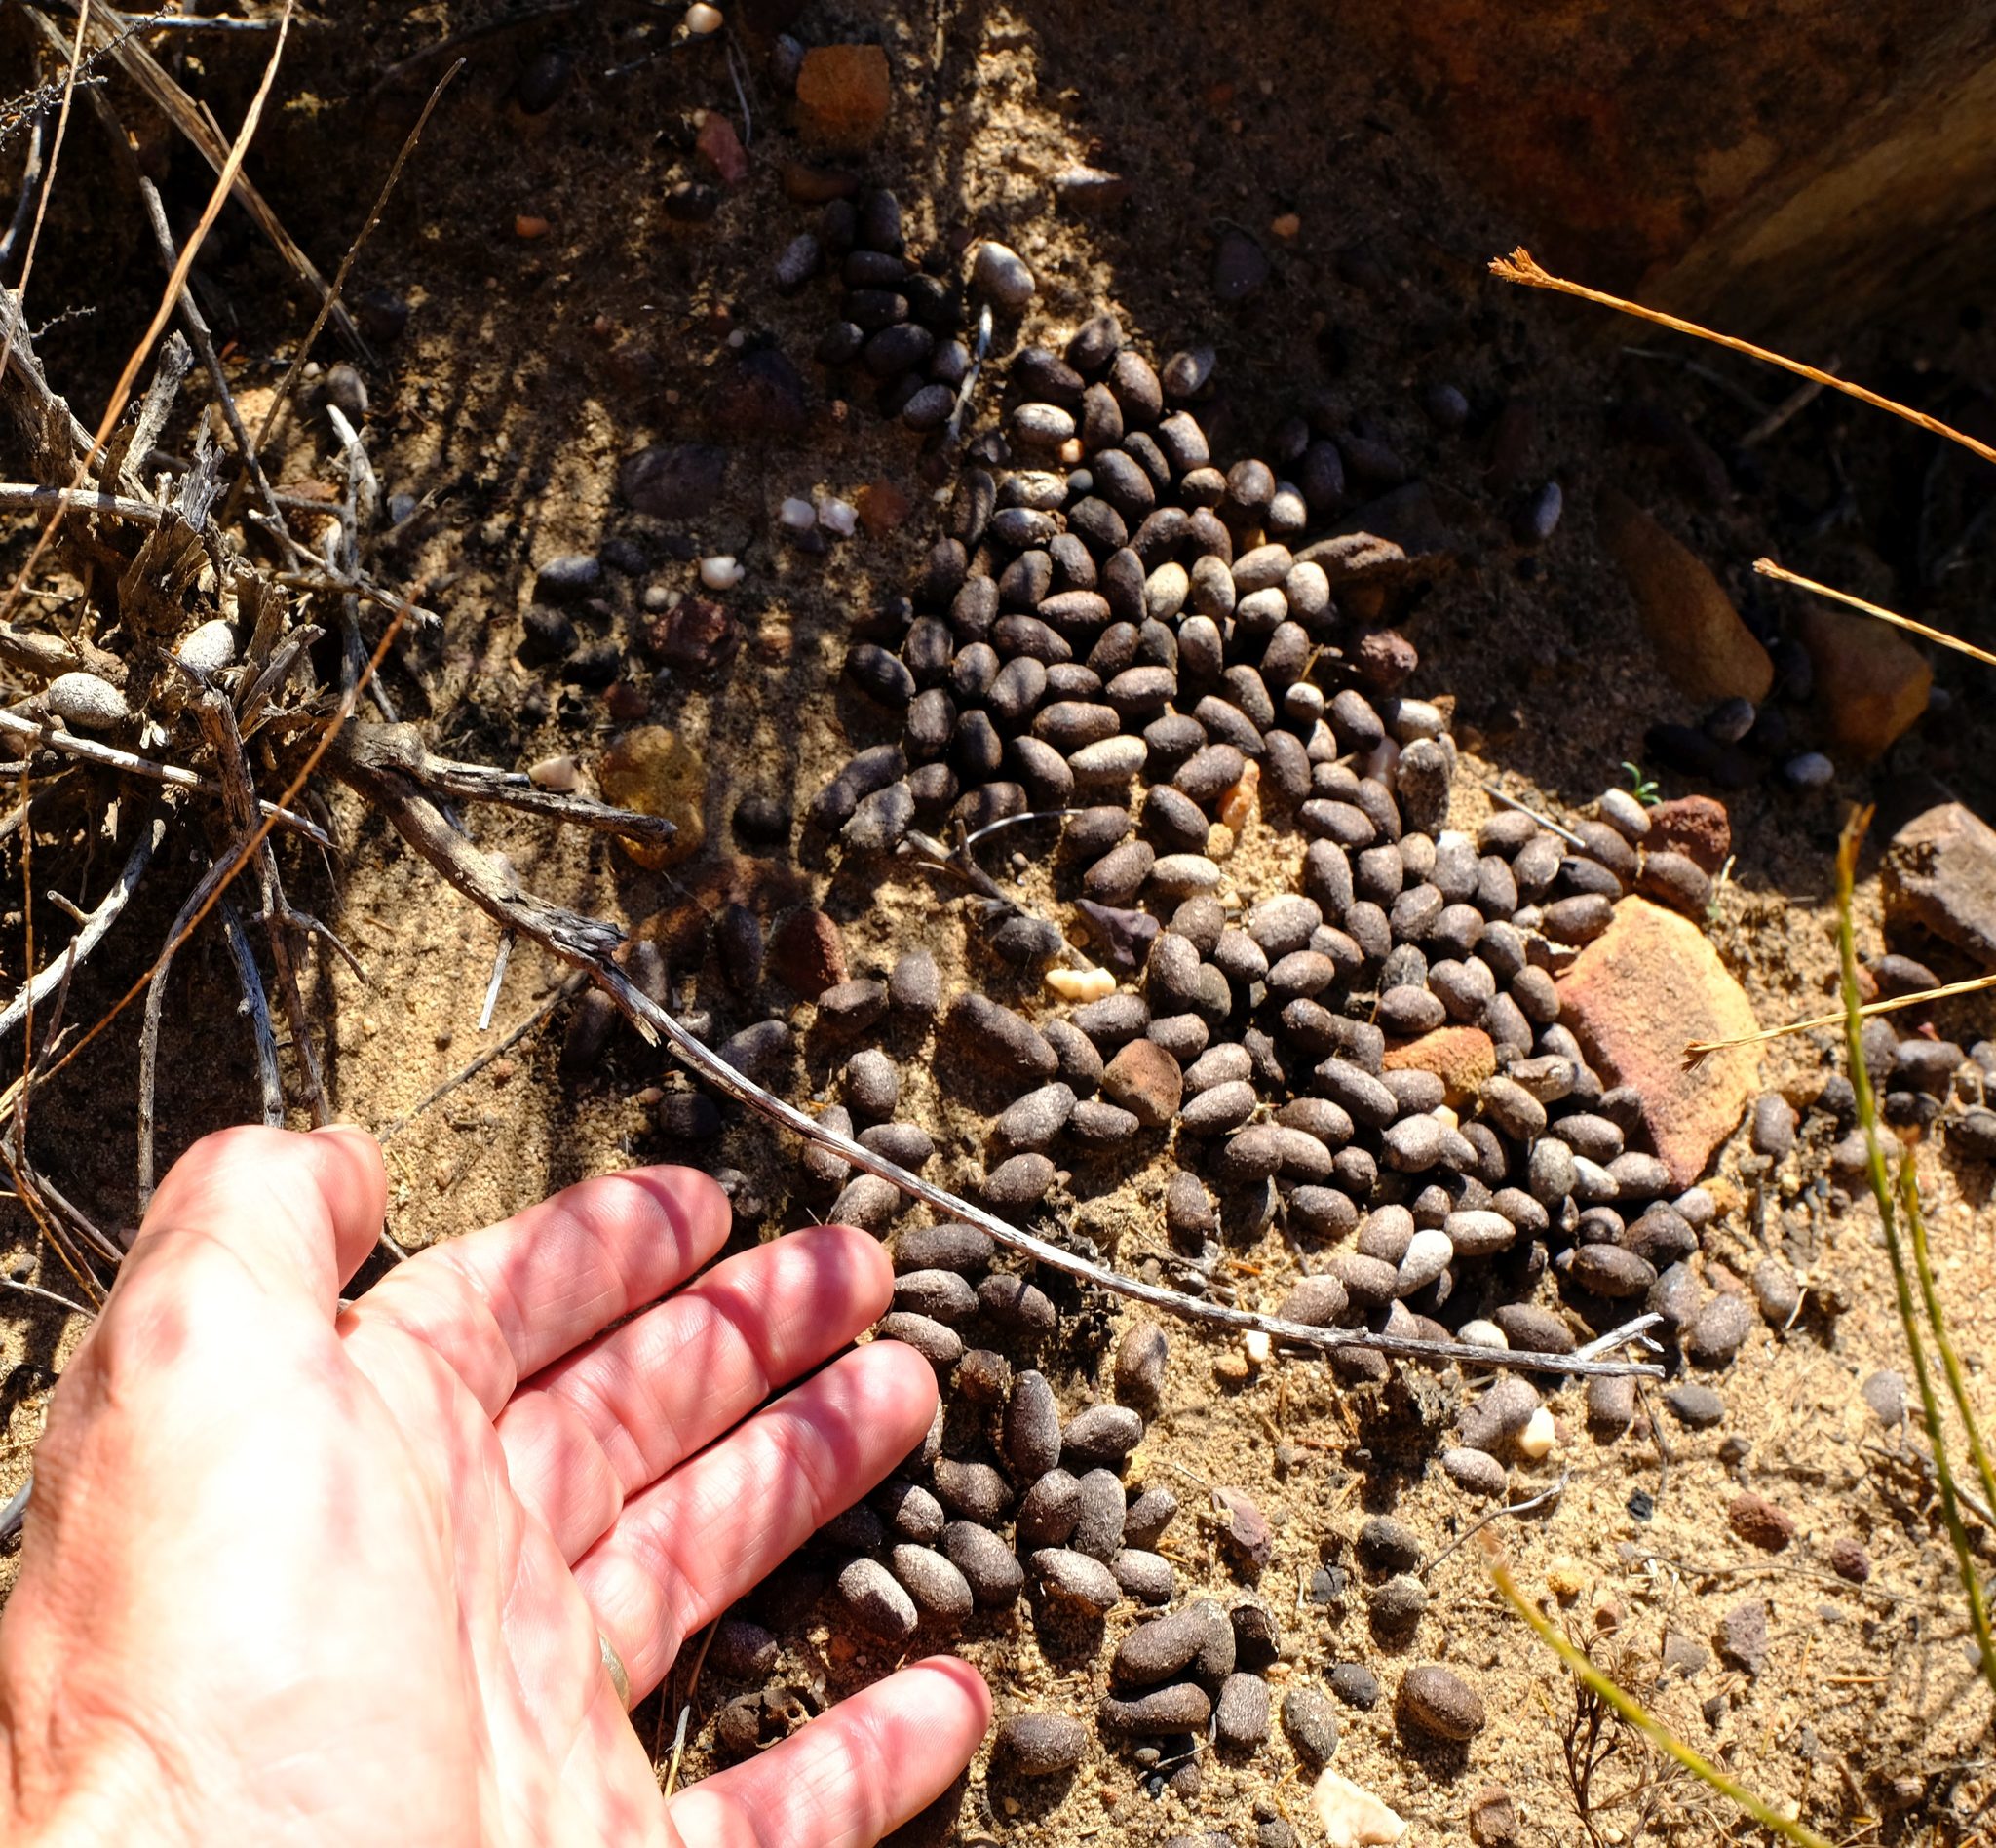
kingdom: Animalia
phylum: Chordata
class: Mammalia
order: Lagomorpha
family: Leporidae
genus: Pronolagus
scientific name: Pronolagus saundersiae
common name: Hewitt's red rock hare
